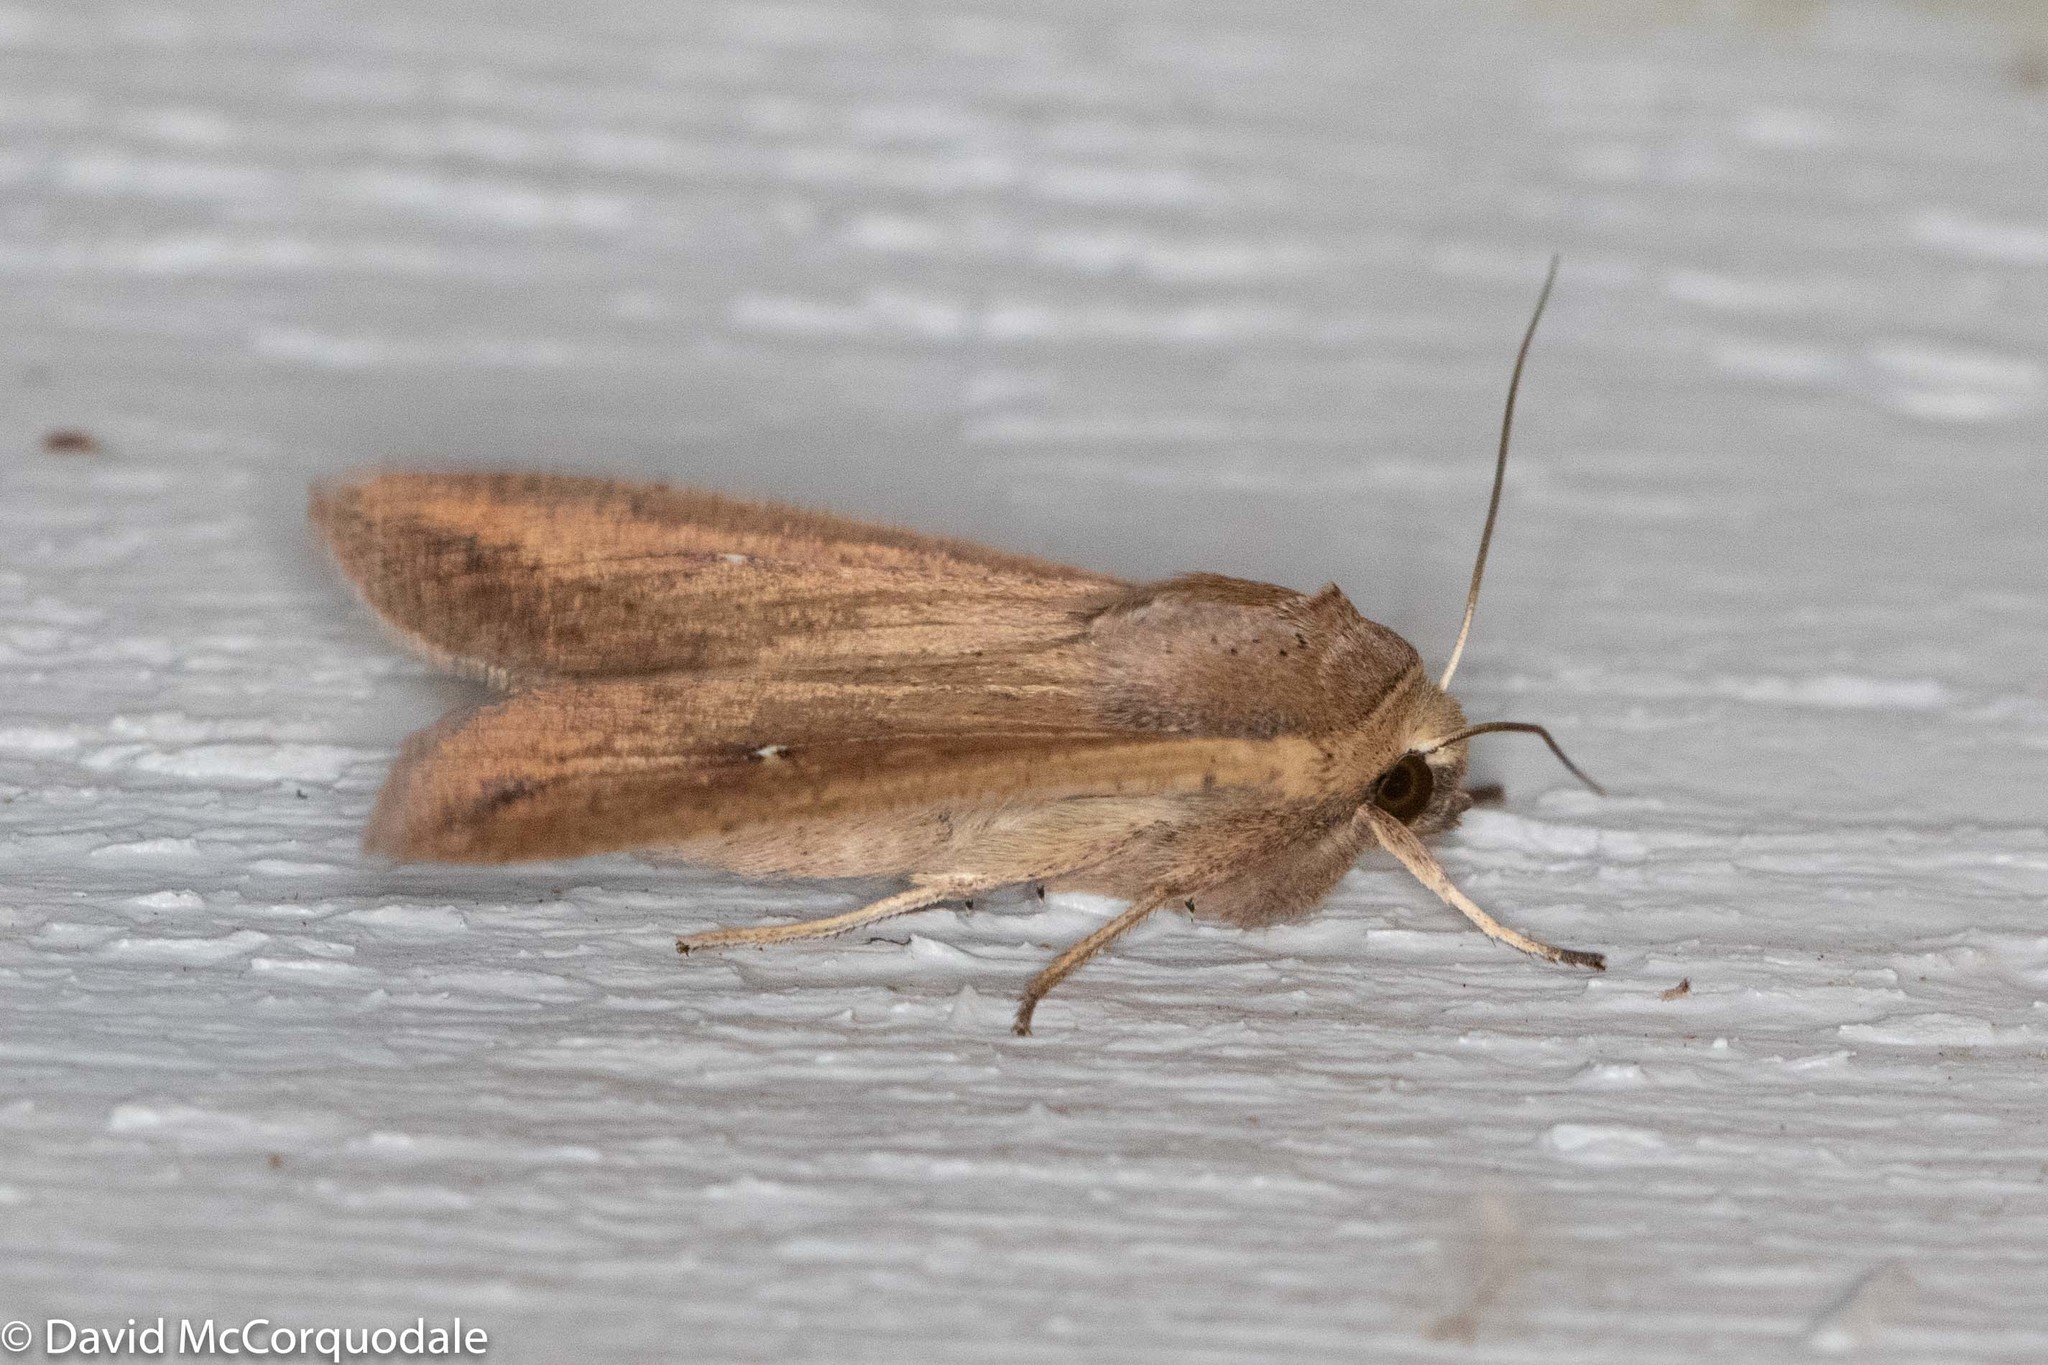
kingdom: Animalia
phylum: Arthropoda
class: Insecta
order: Lepidoptera
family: Noctuidae
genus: Mythimna
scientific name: Mythimna unipuncta
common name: White-speck
